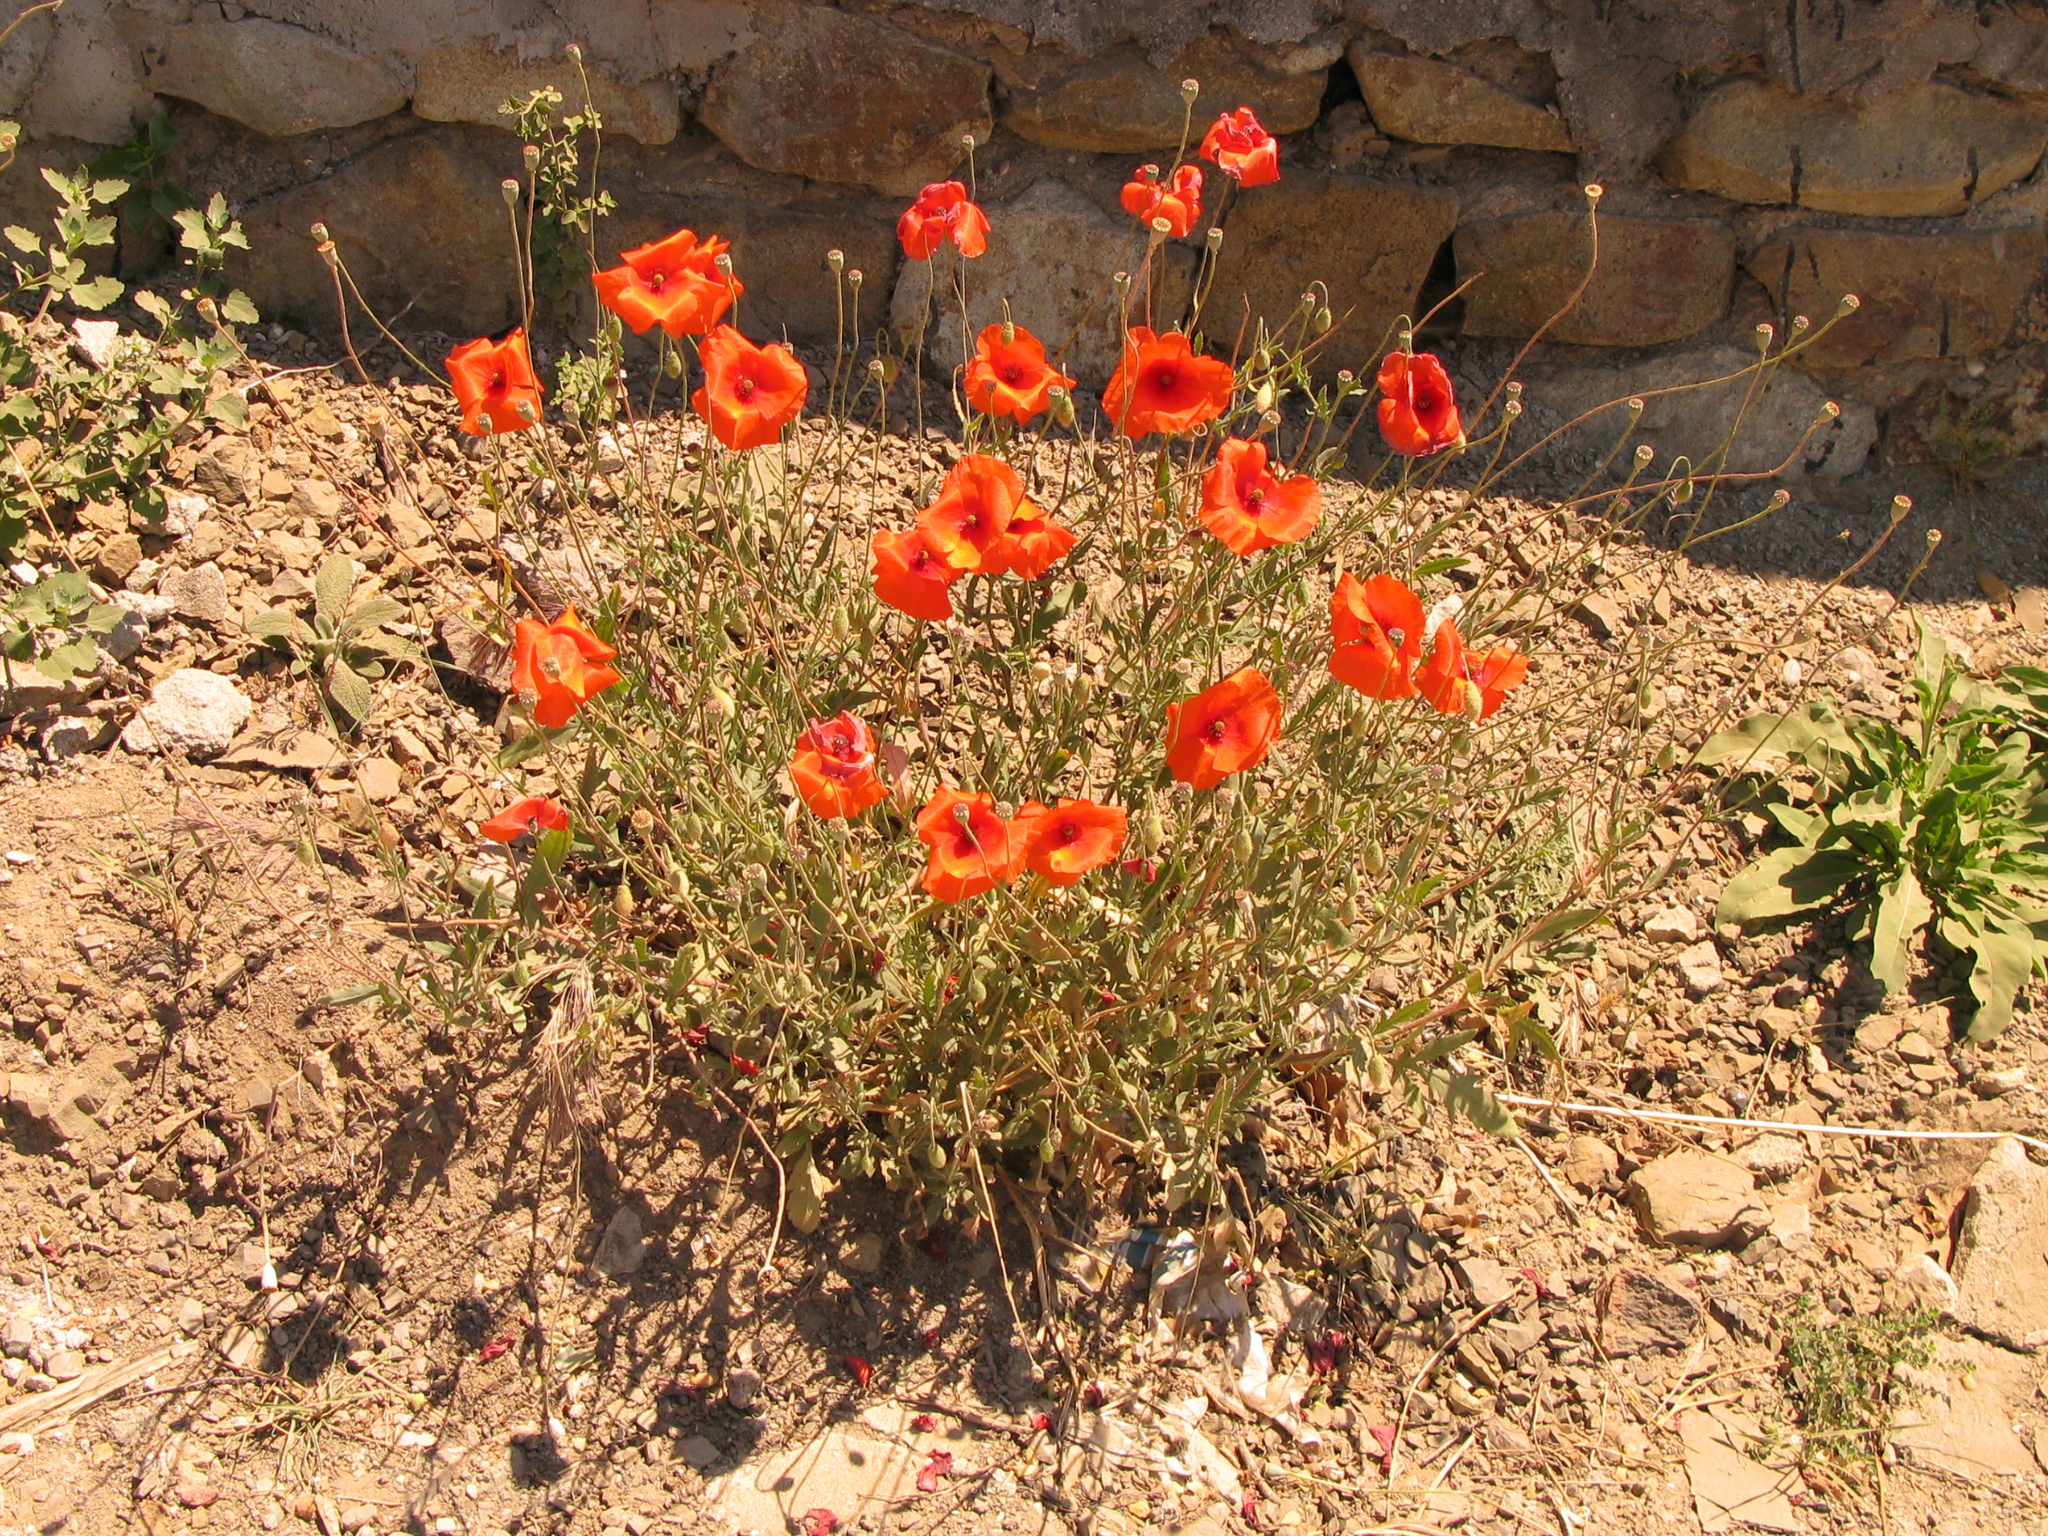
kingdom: Plantae
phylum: Tracheophyta
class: Magnoliopsida
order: Ranunculales
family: Papaveraceae
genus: Papaver
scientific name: Papaver rhoeas
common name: Corn poppy
